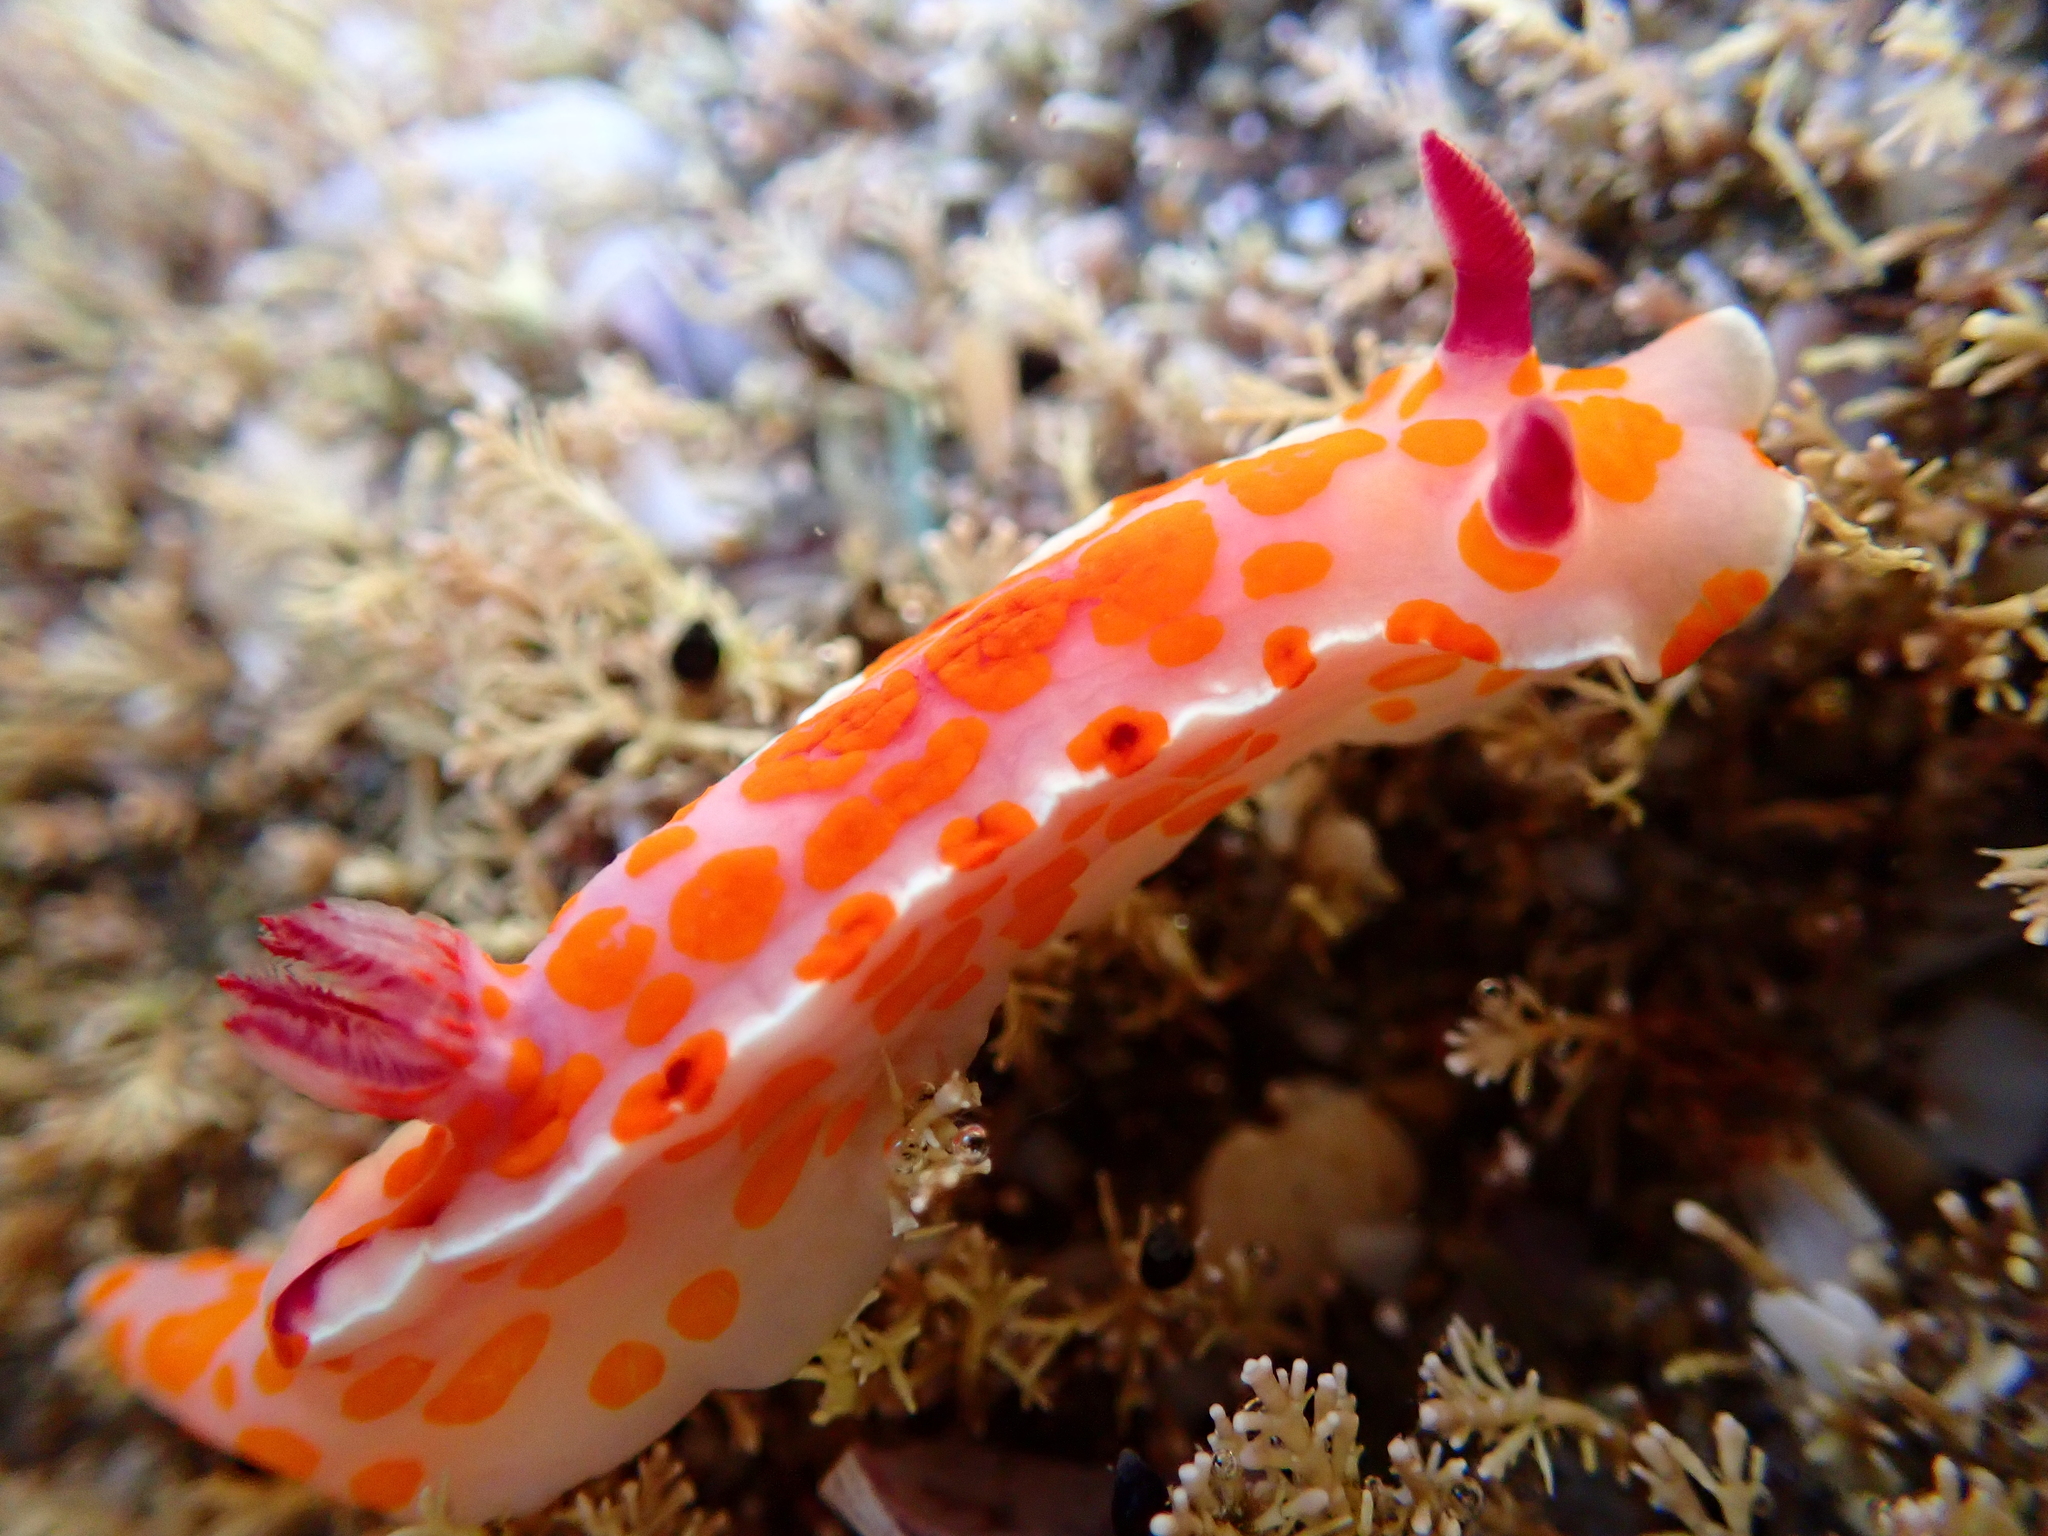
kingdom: Animalia
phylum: Mollusca
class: Gastropoda
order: Nudibranchia
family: Chromodorididae
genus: Ceratosoma
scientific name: Ceratosoma amoenum
